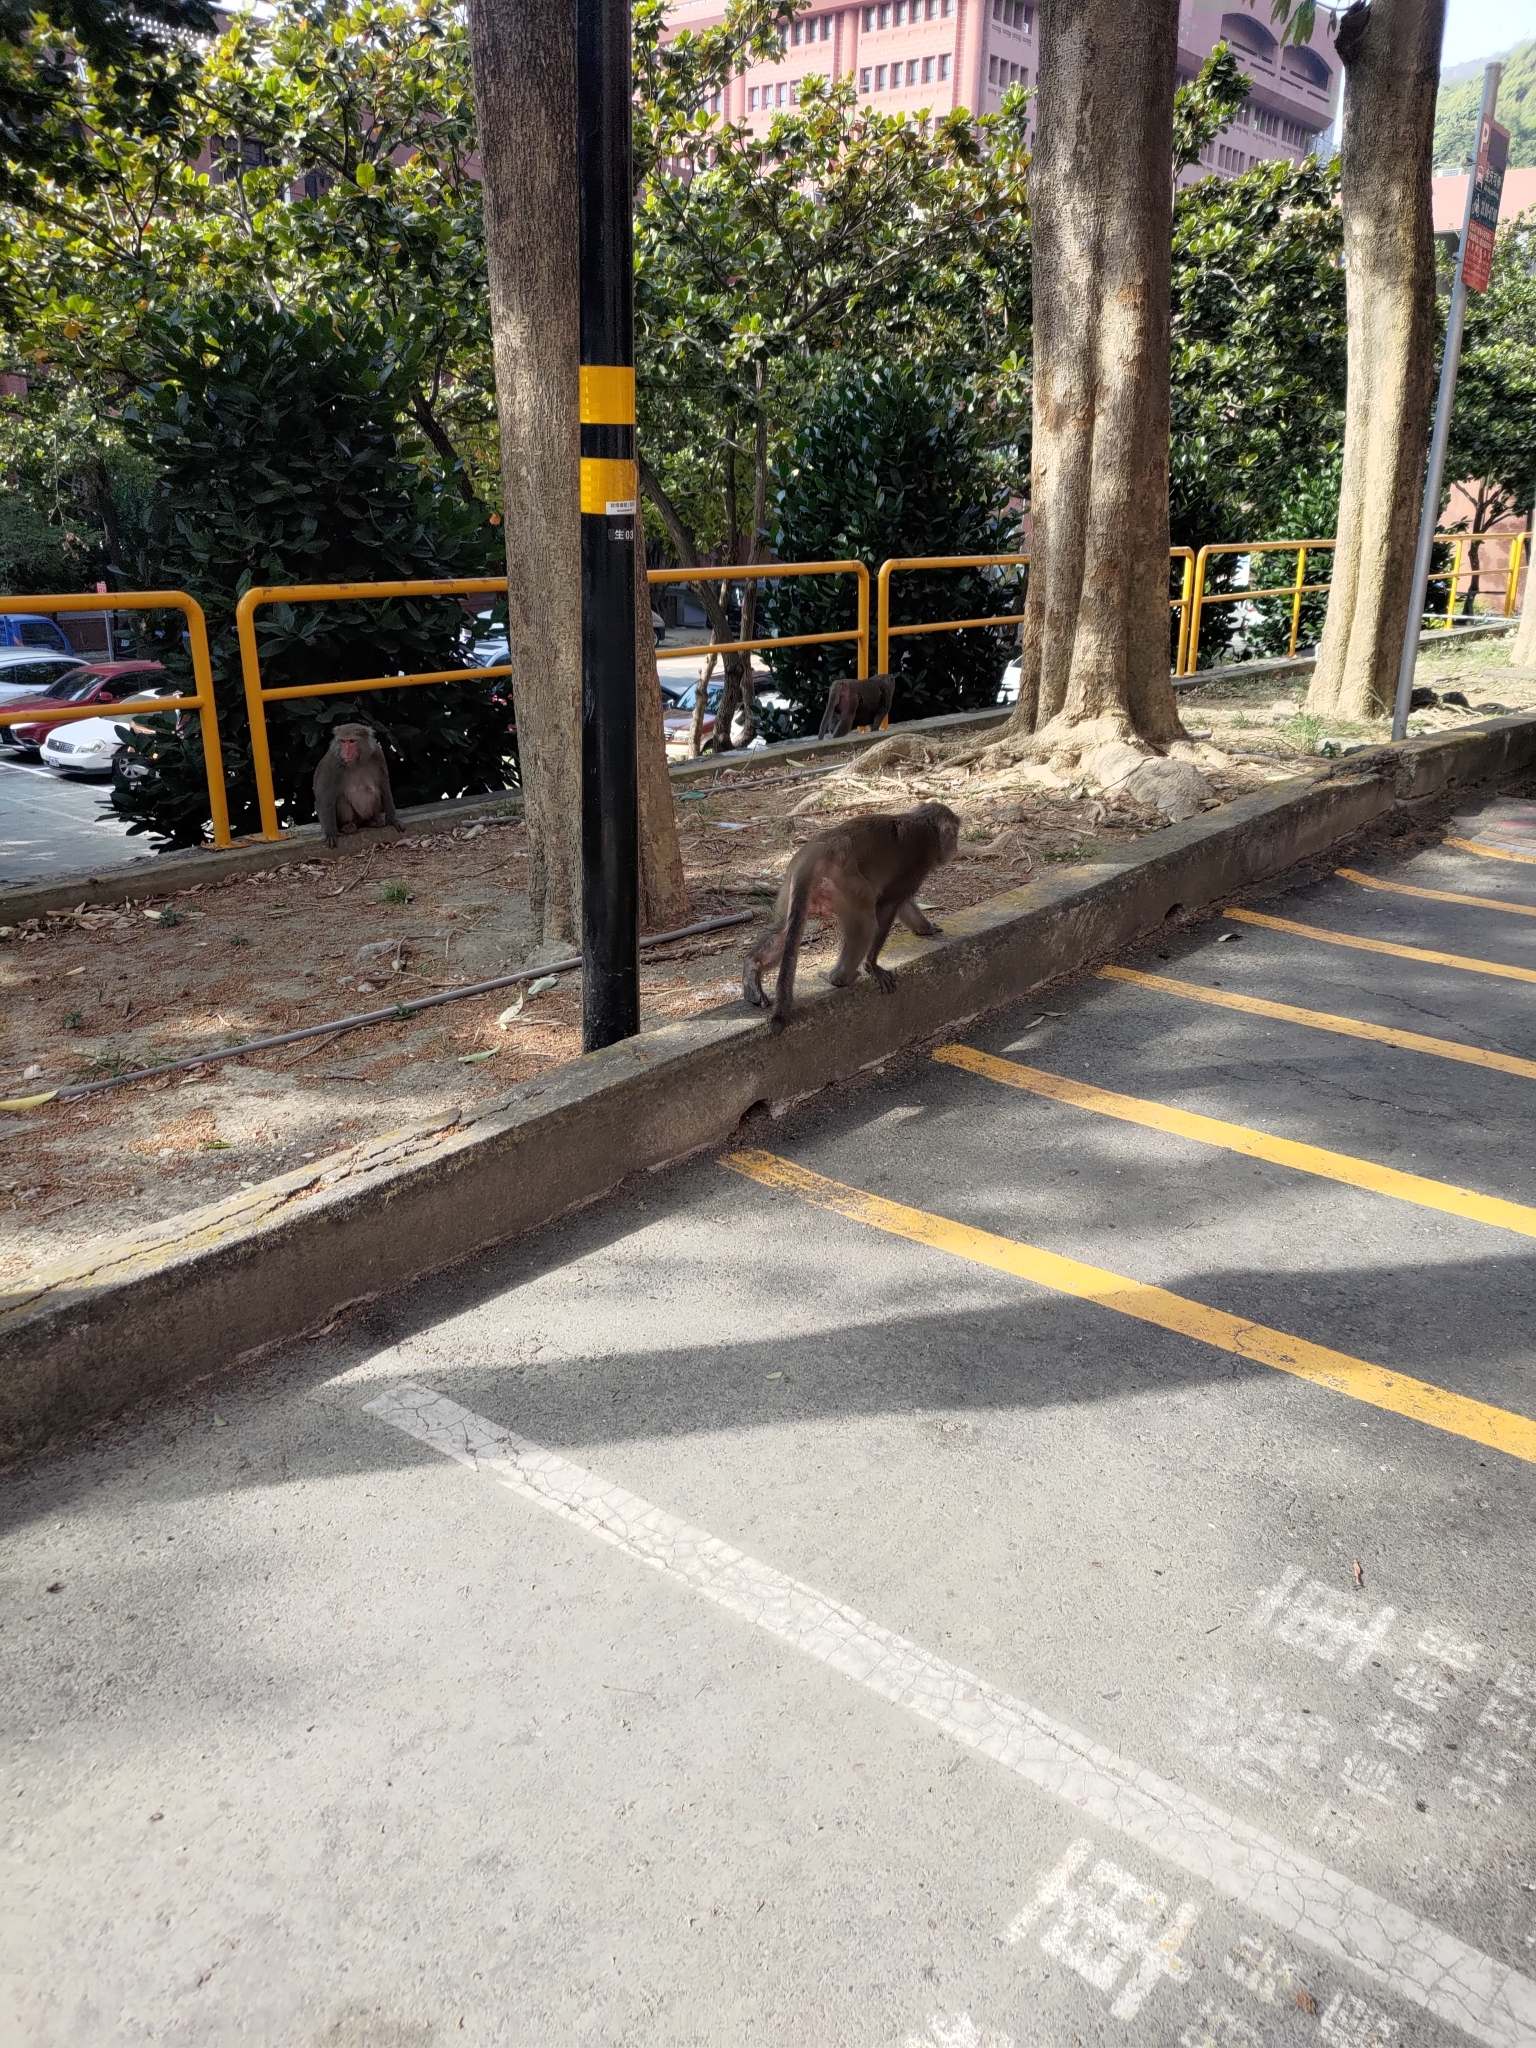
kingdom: Animalia
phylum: Chordata
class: Mammalia
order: Primates
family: Cercopithecidae
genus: Macaca
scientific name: Macaca cyclopis
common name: Formosan rock macaque
